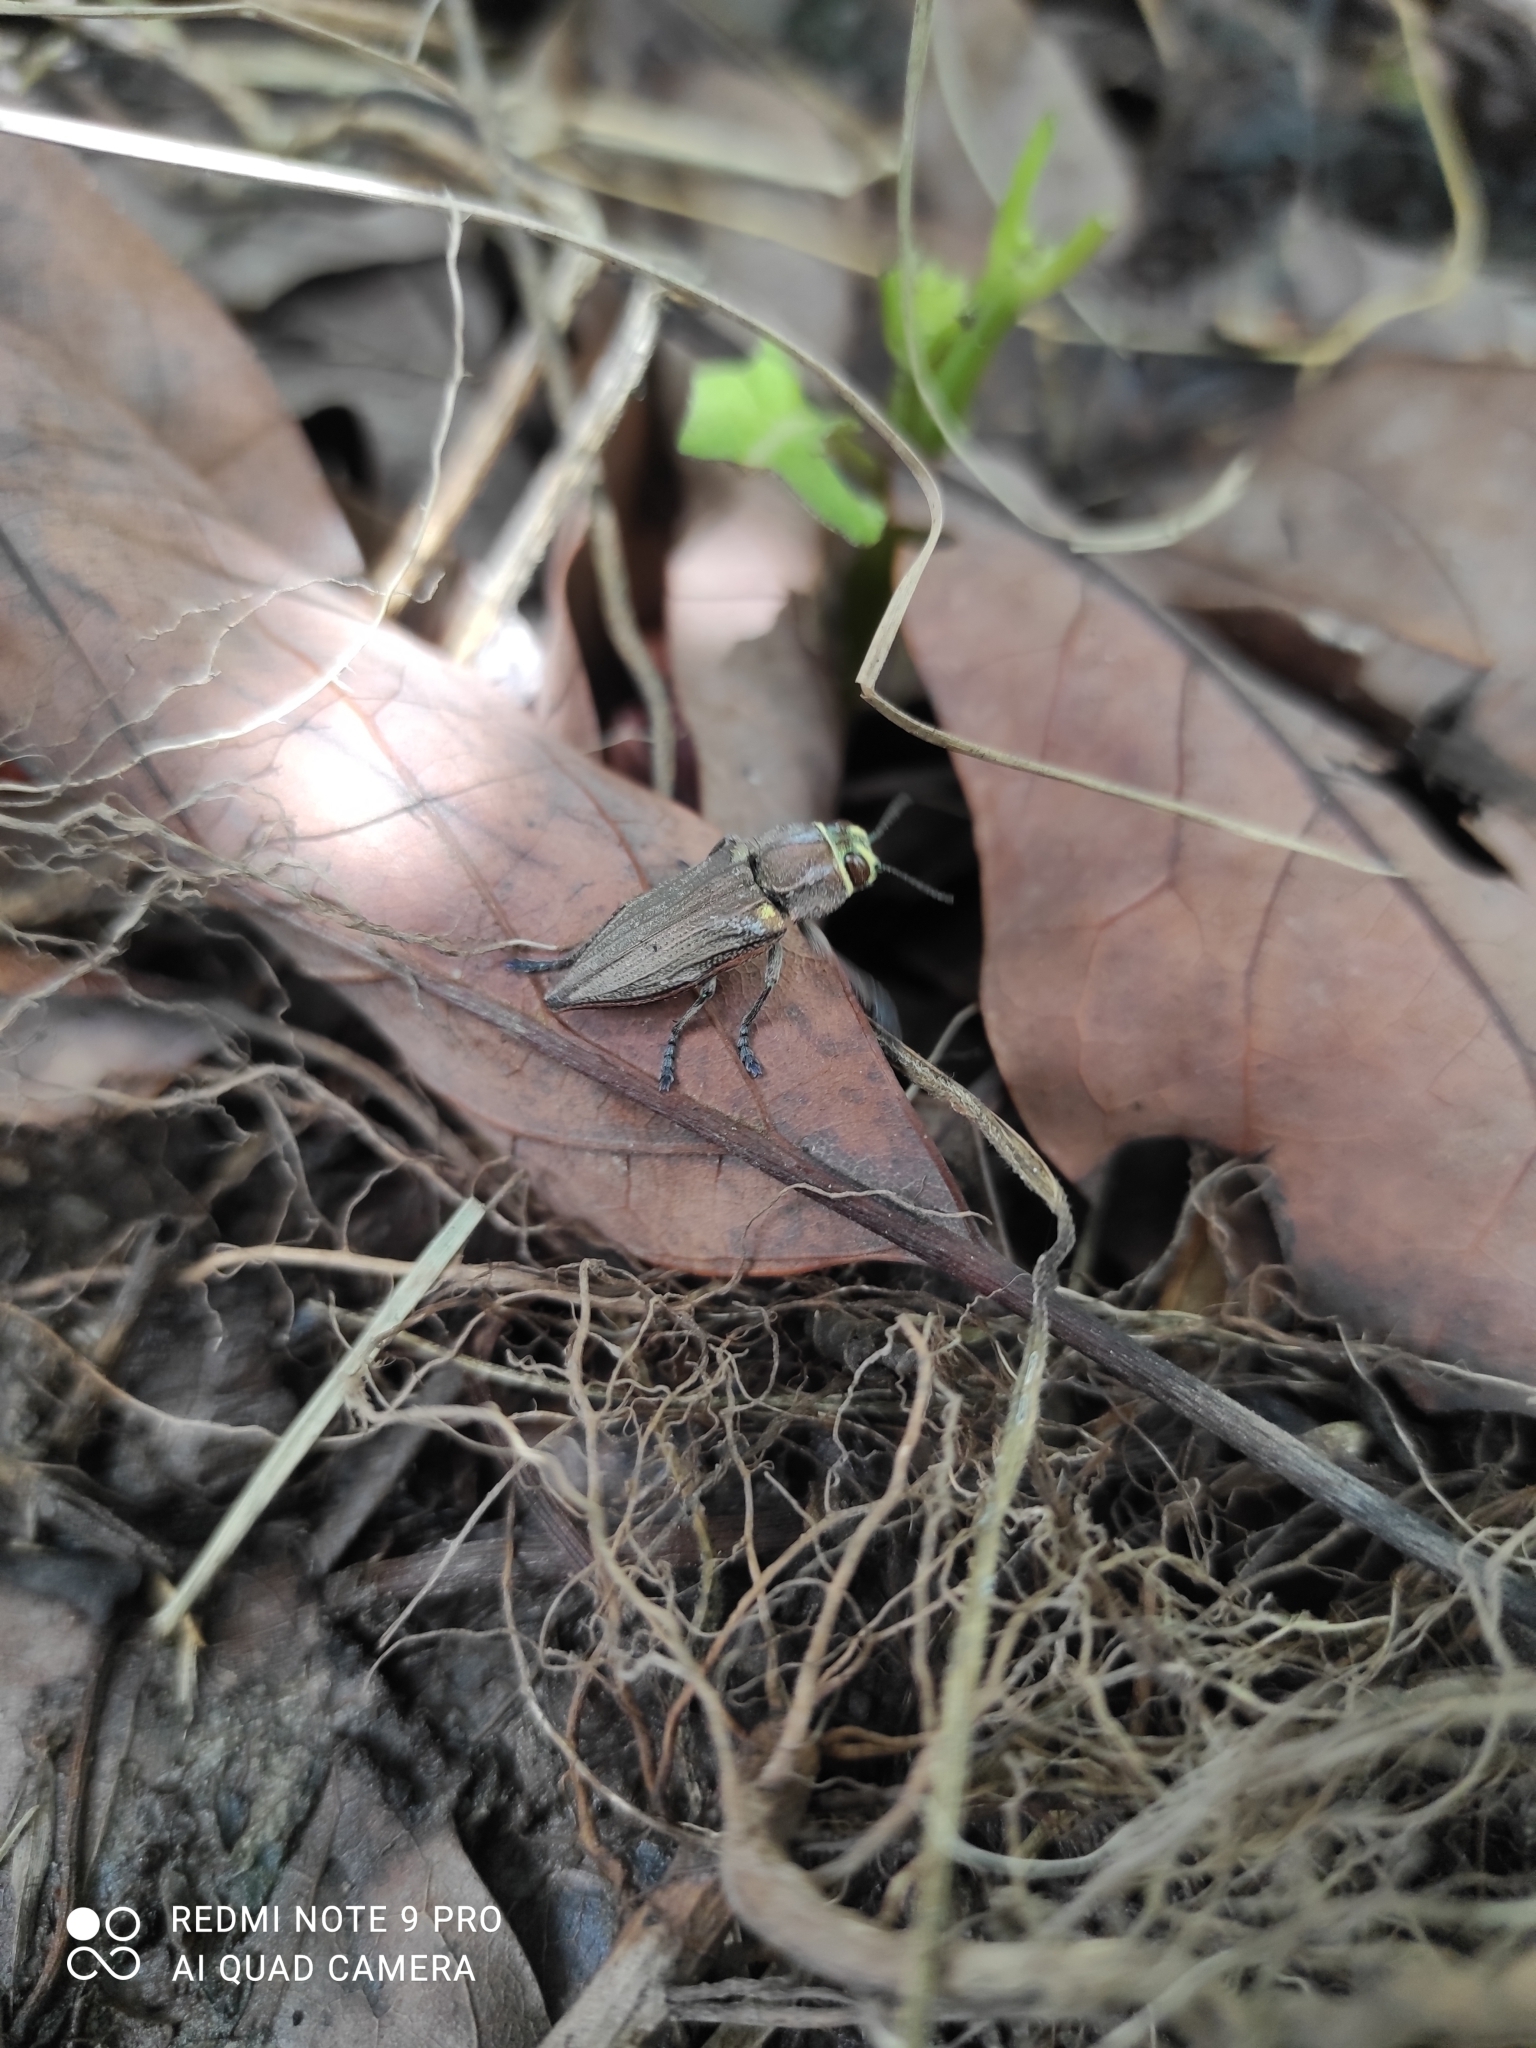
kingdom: Animalia
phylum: Arthropoda
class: Insecta
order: Coleoptera
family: Buprestidae
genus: Ectinogonia
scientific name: Ectinogonia melichari
